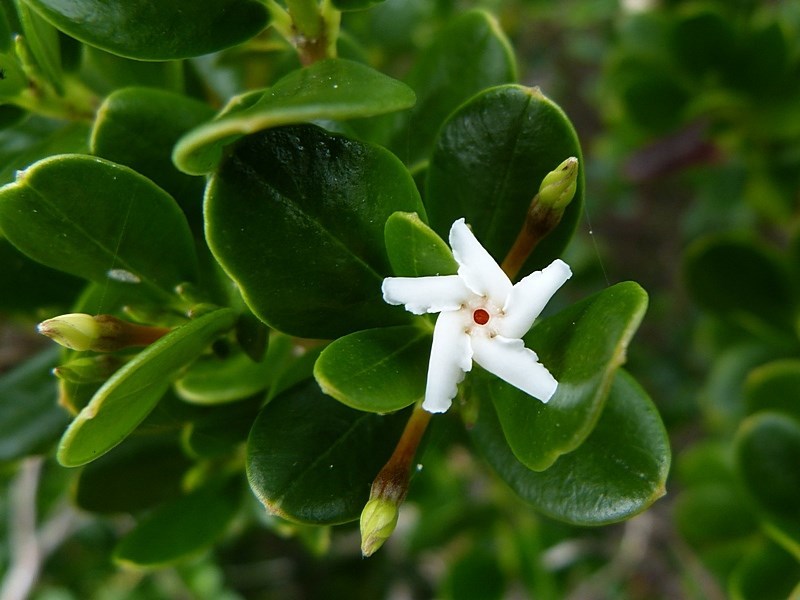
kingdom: Plantae
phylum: Tracheophyta
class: Magnoliopsida
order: Gentianales
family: Apocynaceae
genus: Alyxia
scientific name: Alyxia buxifolia
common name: Dysentery-bush
